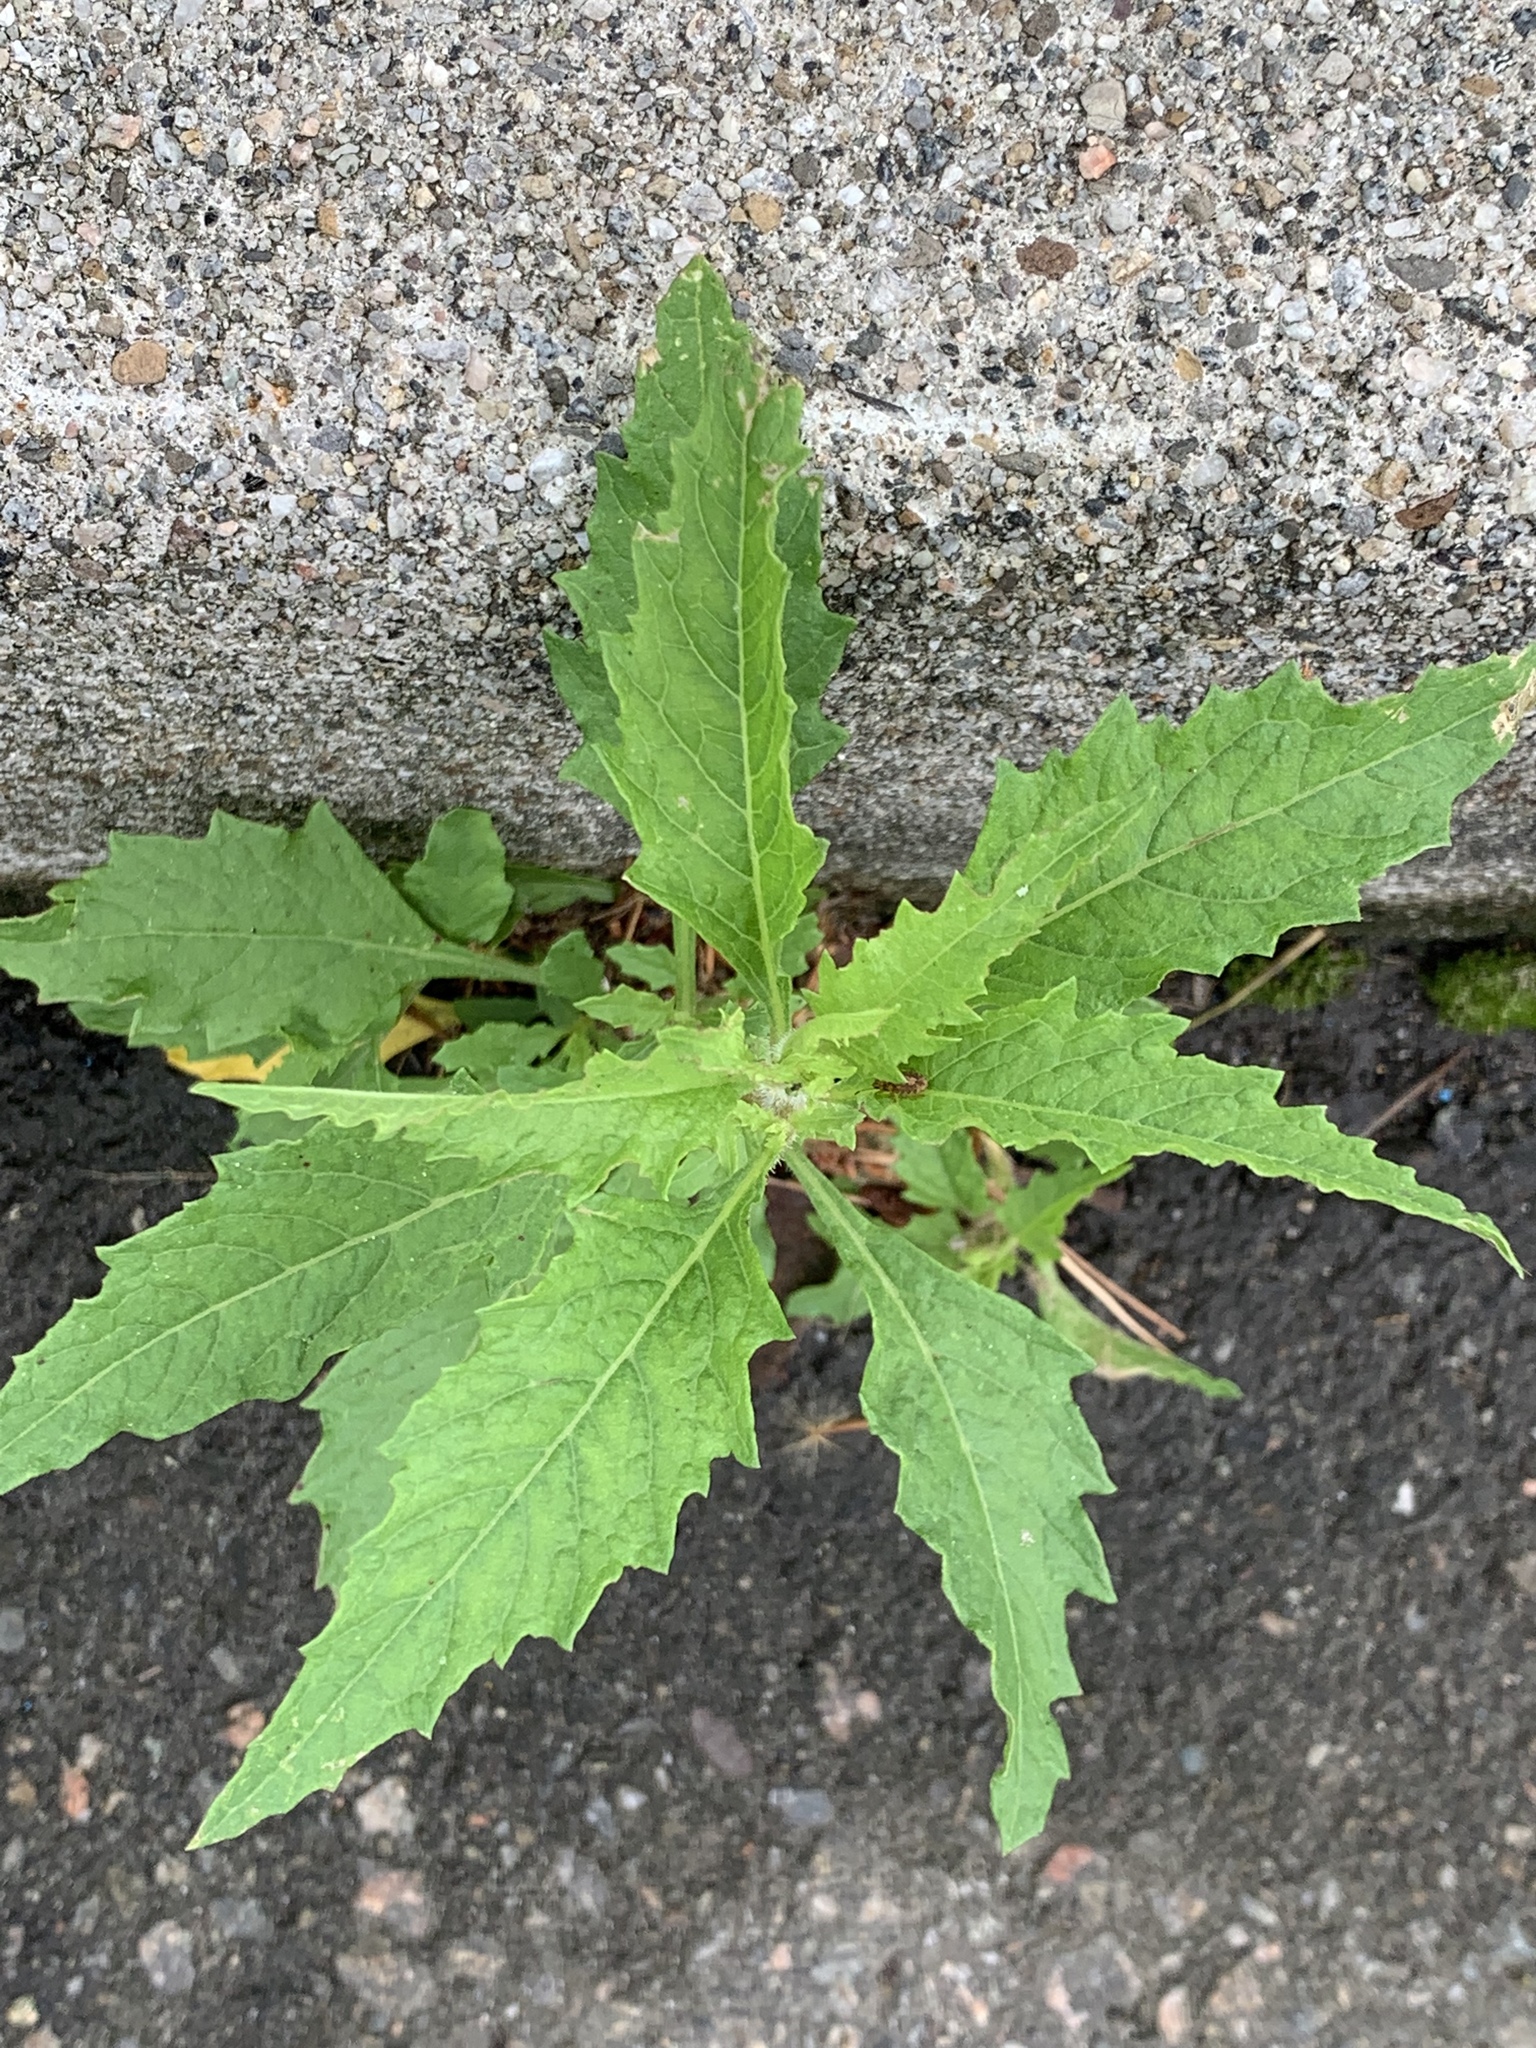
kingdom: Plantae
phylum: Tracheophyta
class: Magnoliopsida
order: Caryophyllales
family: Amaranthaceae
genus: Dysphania
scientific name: Dysphania ambrosioides
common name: Wormseed
